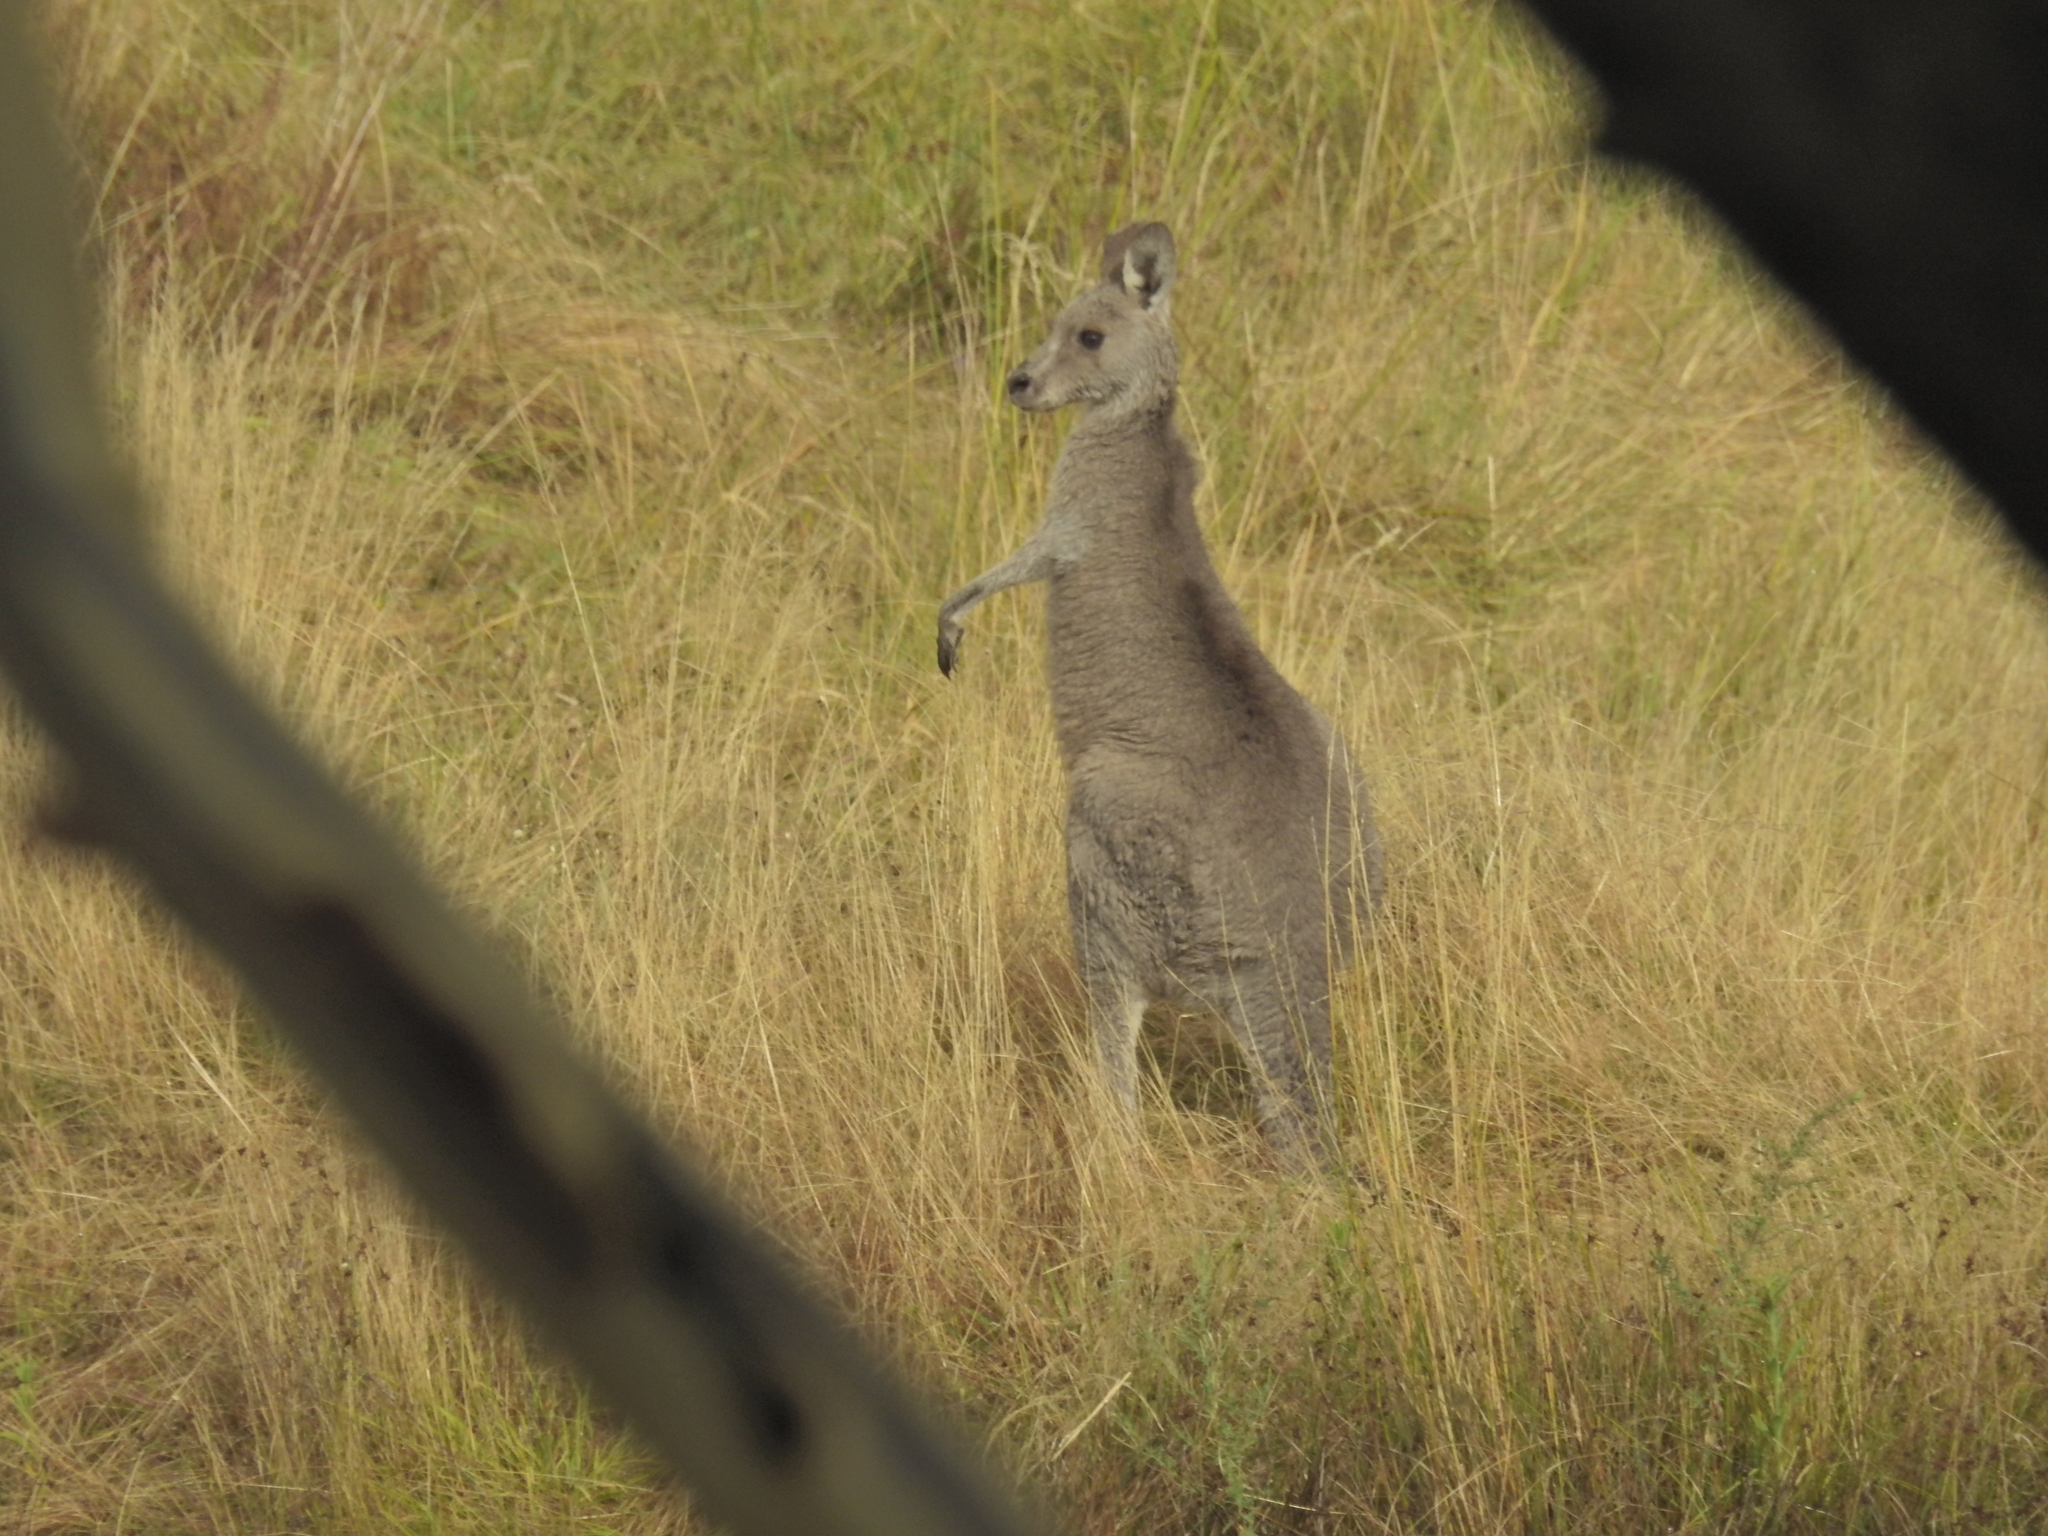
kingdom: Animalia
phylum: Chordata
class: Mammalia
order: Diprotodontia
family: Macropodidae
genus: Macropus
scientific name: Macropus giganteus
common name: Eastern grey kangaroo
